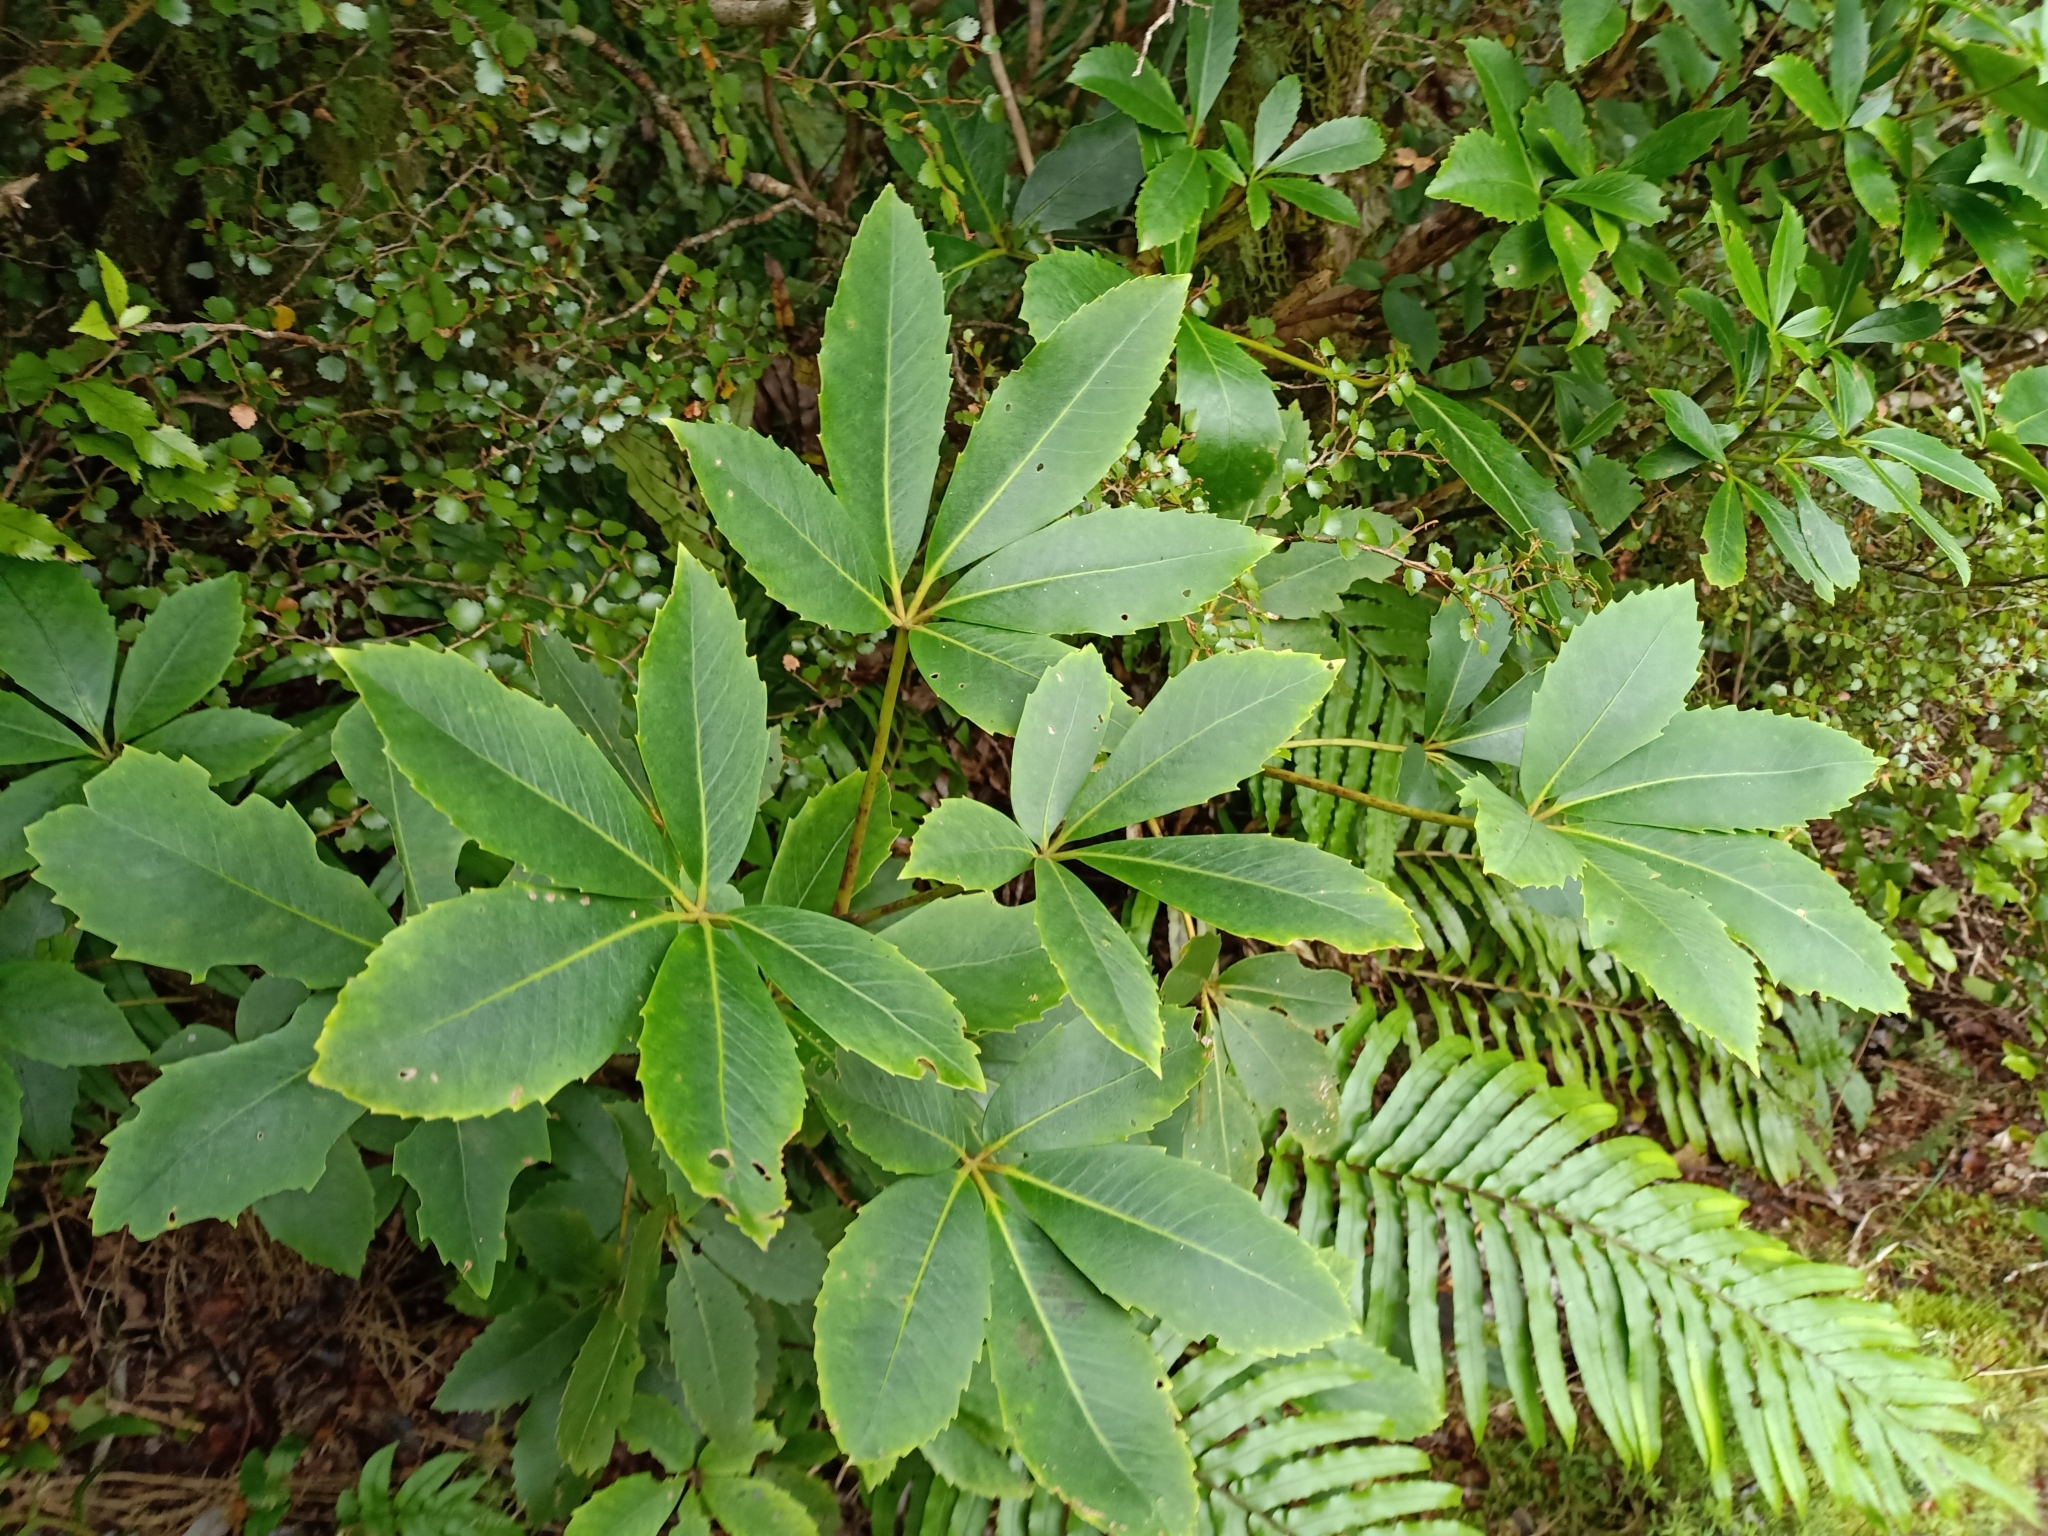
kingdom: Plantae
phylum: Tracheophyta
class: Magnoliopsida
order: Apiales
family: Araliaceae
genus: Neopanax
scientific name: Neopanax colensoi
